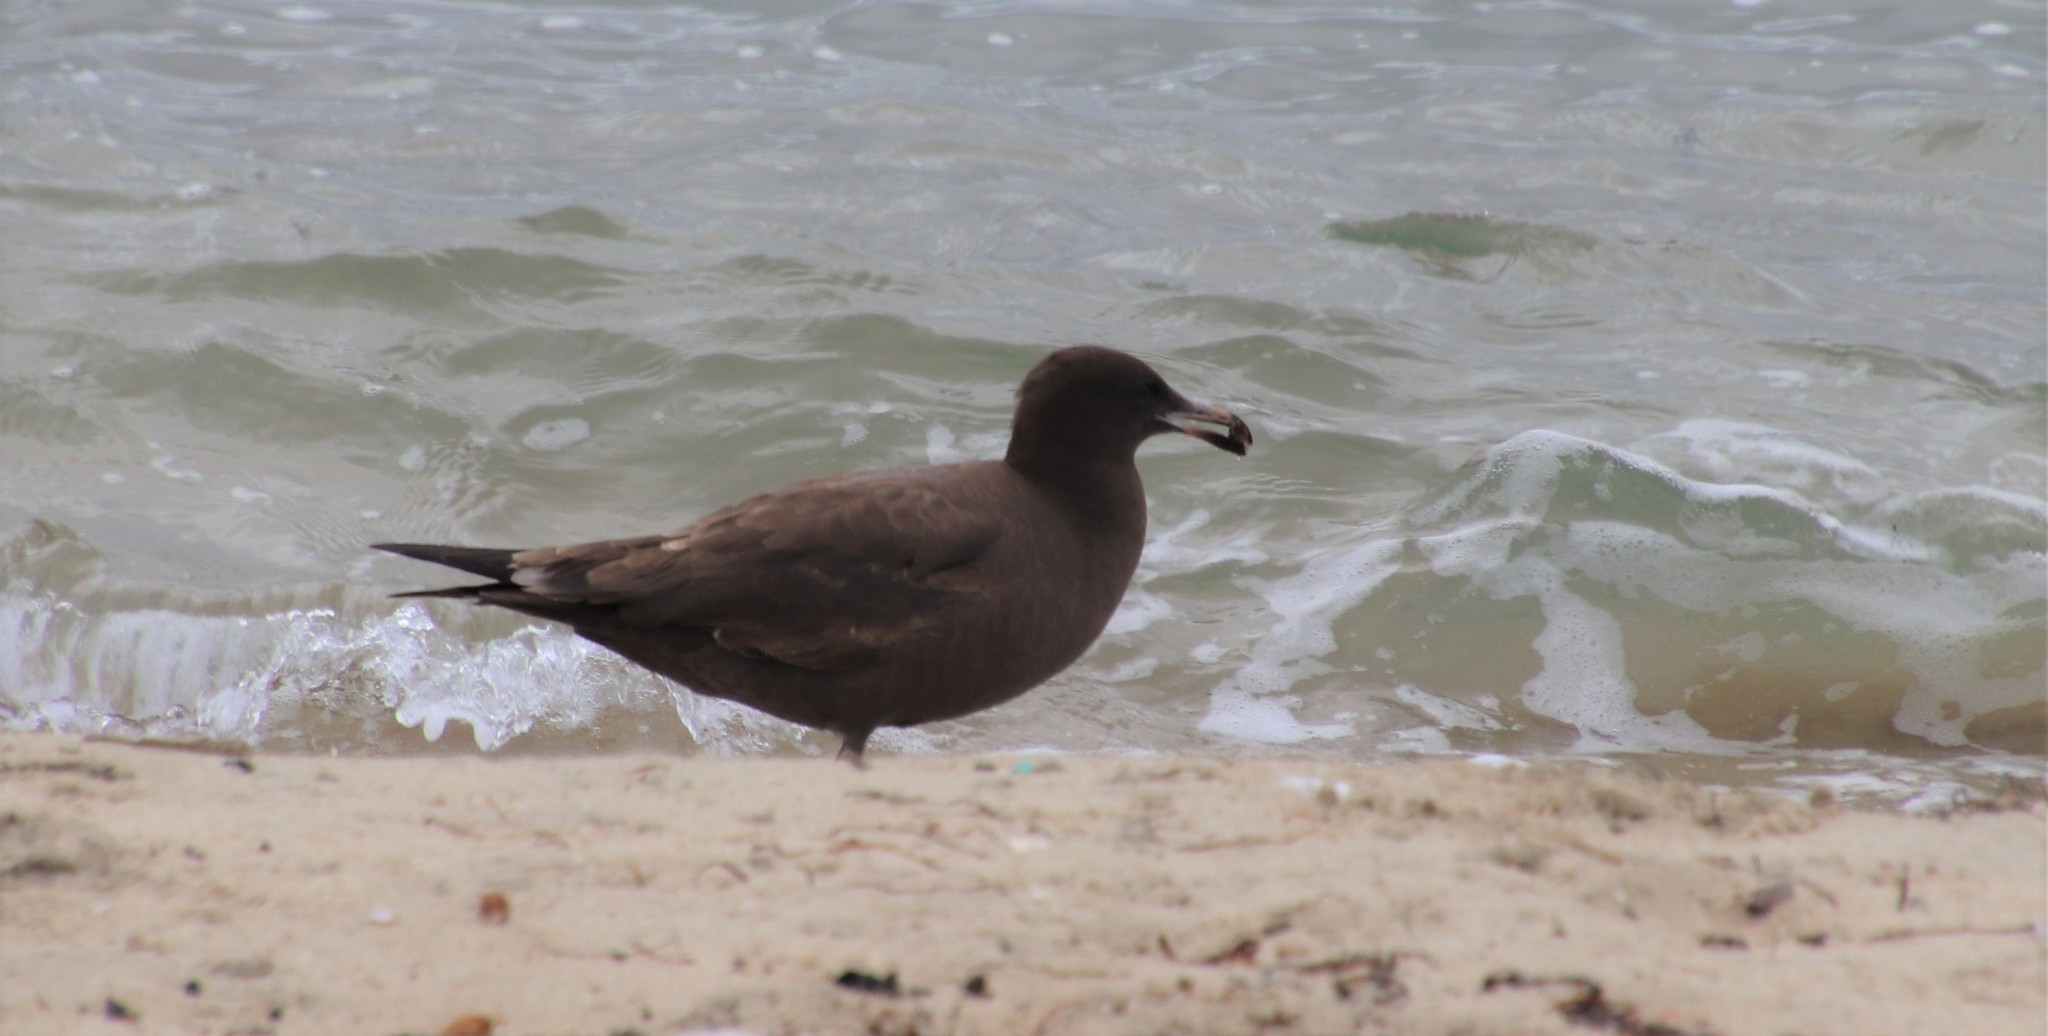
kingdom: Animalia
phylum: Chordata
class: Aves
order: Charadriiformes
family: Laridae
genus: Larus
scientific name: Larus heermanni
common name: Heermann's gull
